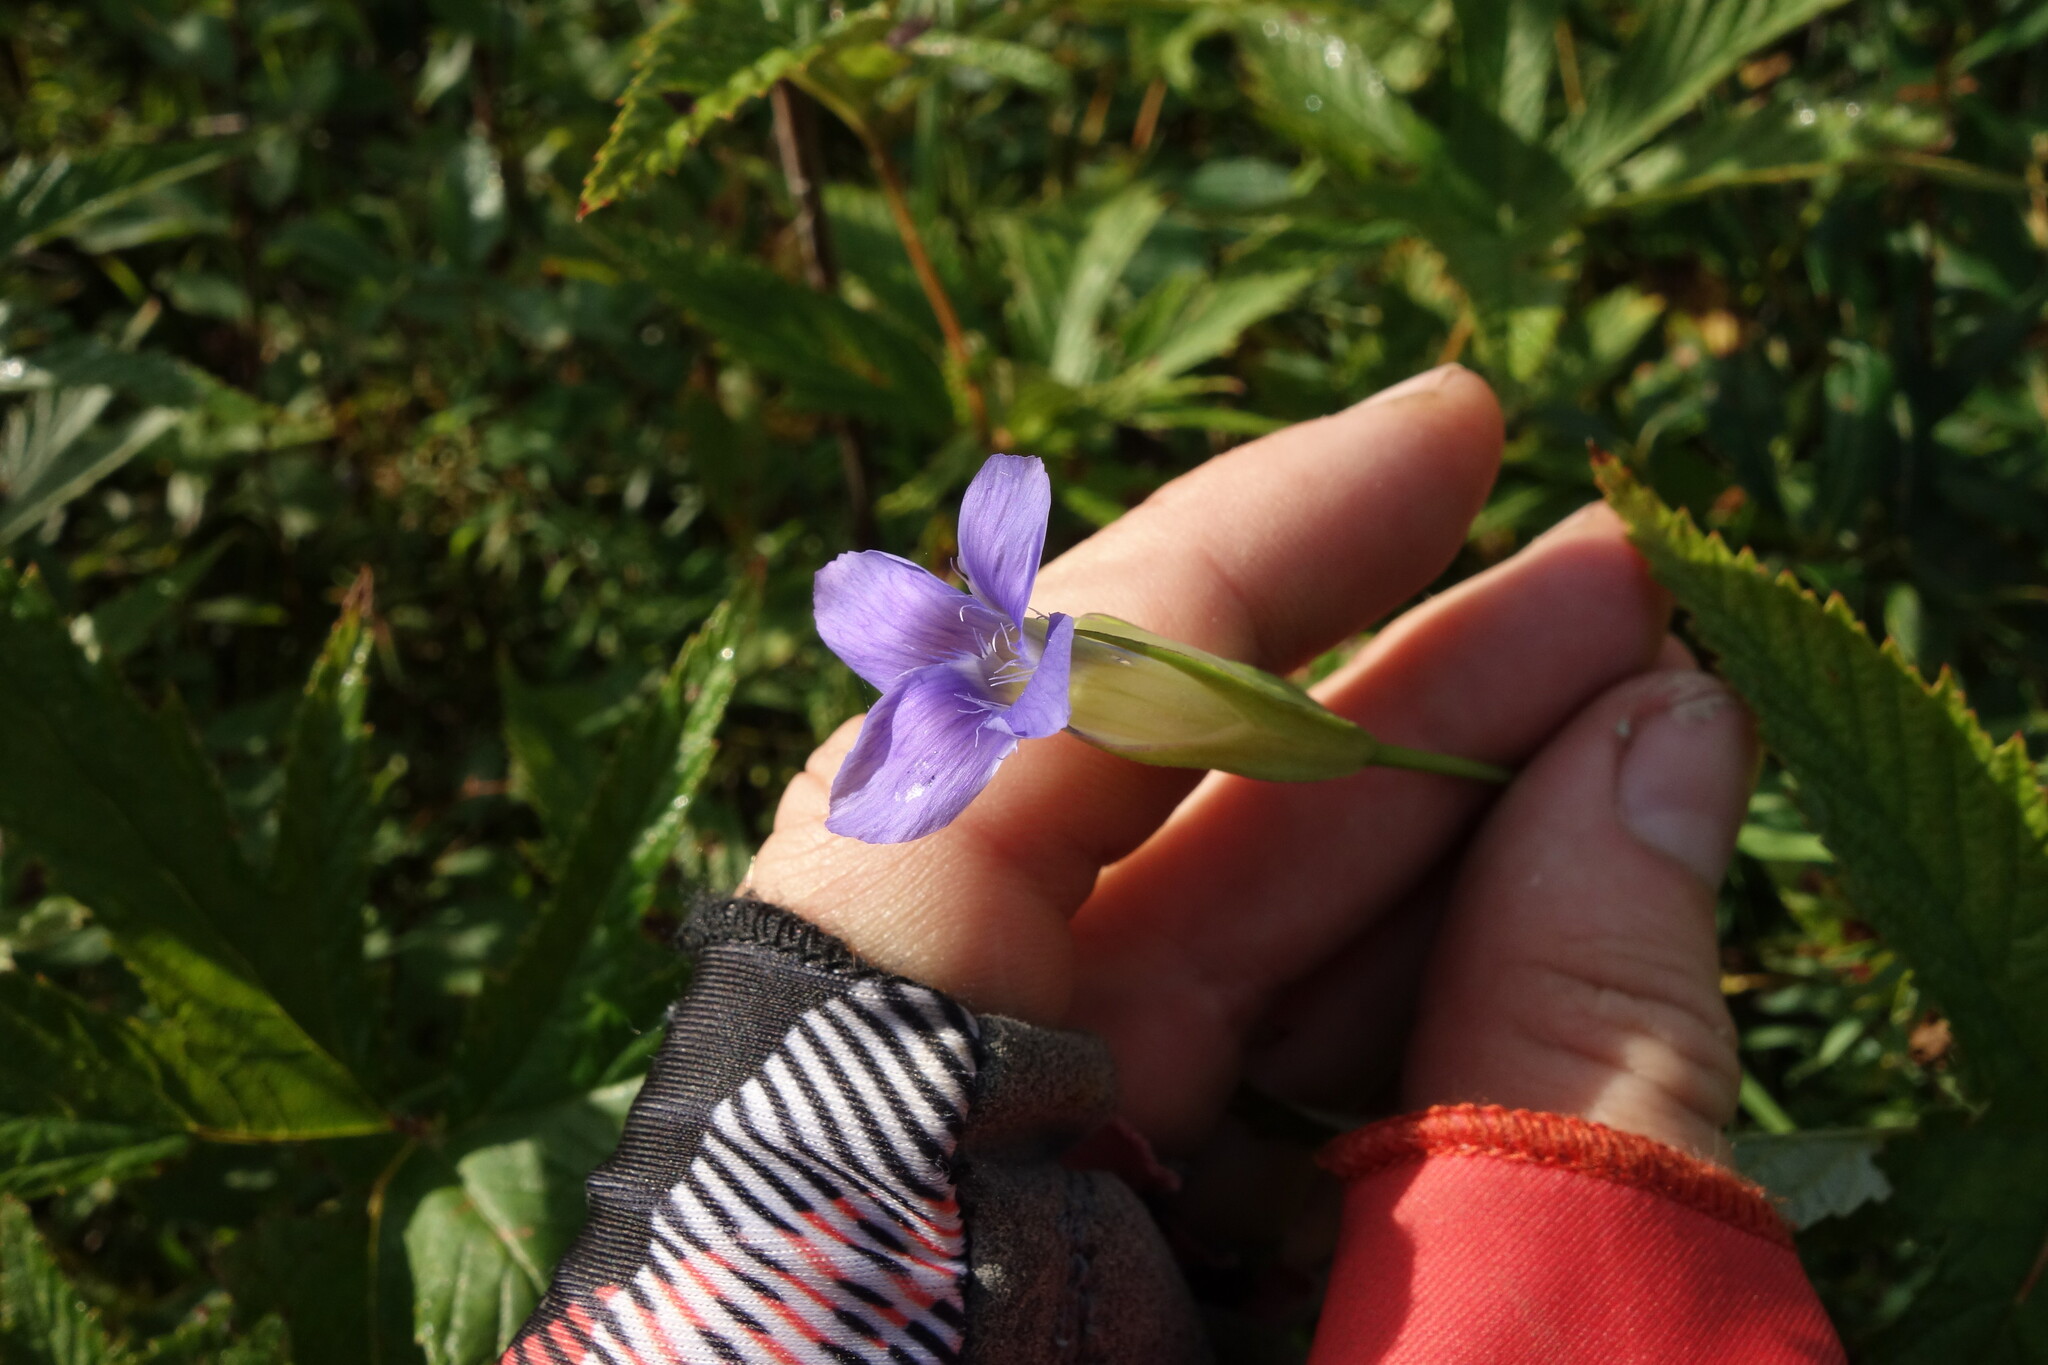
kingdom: Plantae
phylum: Tracheophyta
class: Magnoliopsida
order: Gentianales
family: Gentianaceae
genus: Gentianopsis
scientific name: Gentianopsis barbata
